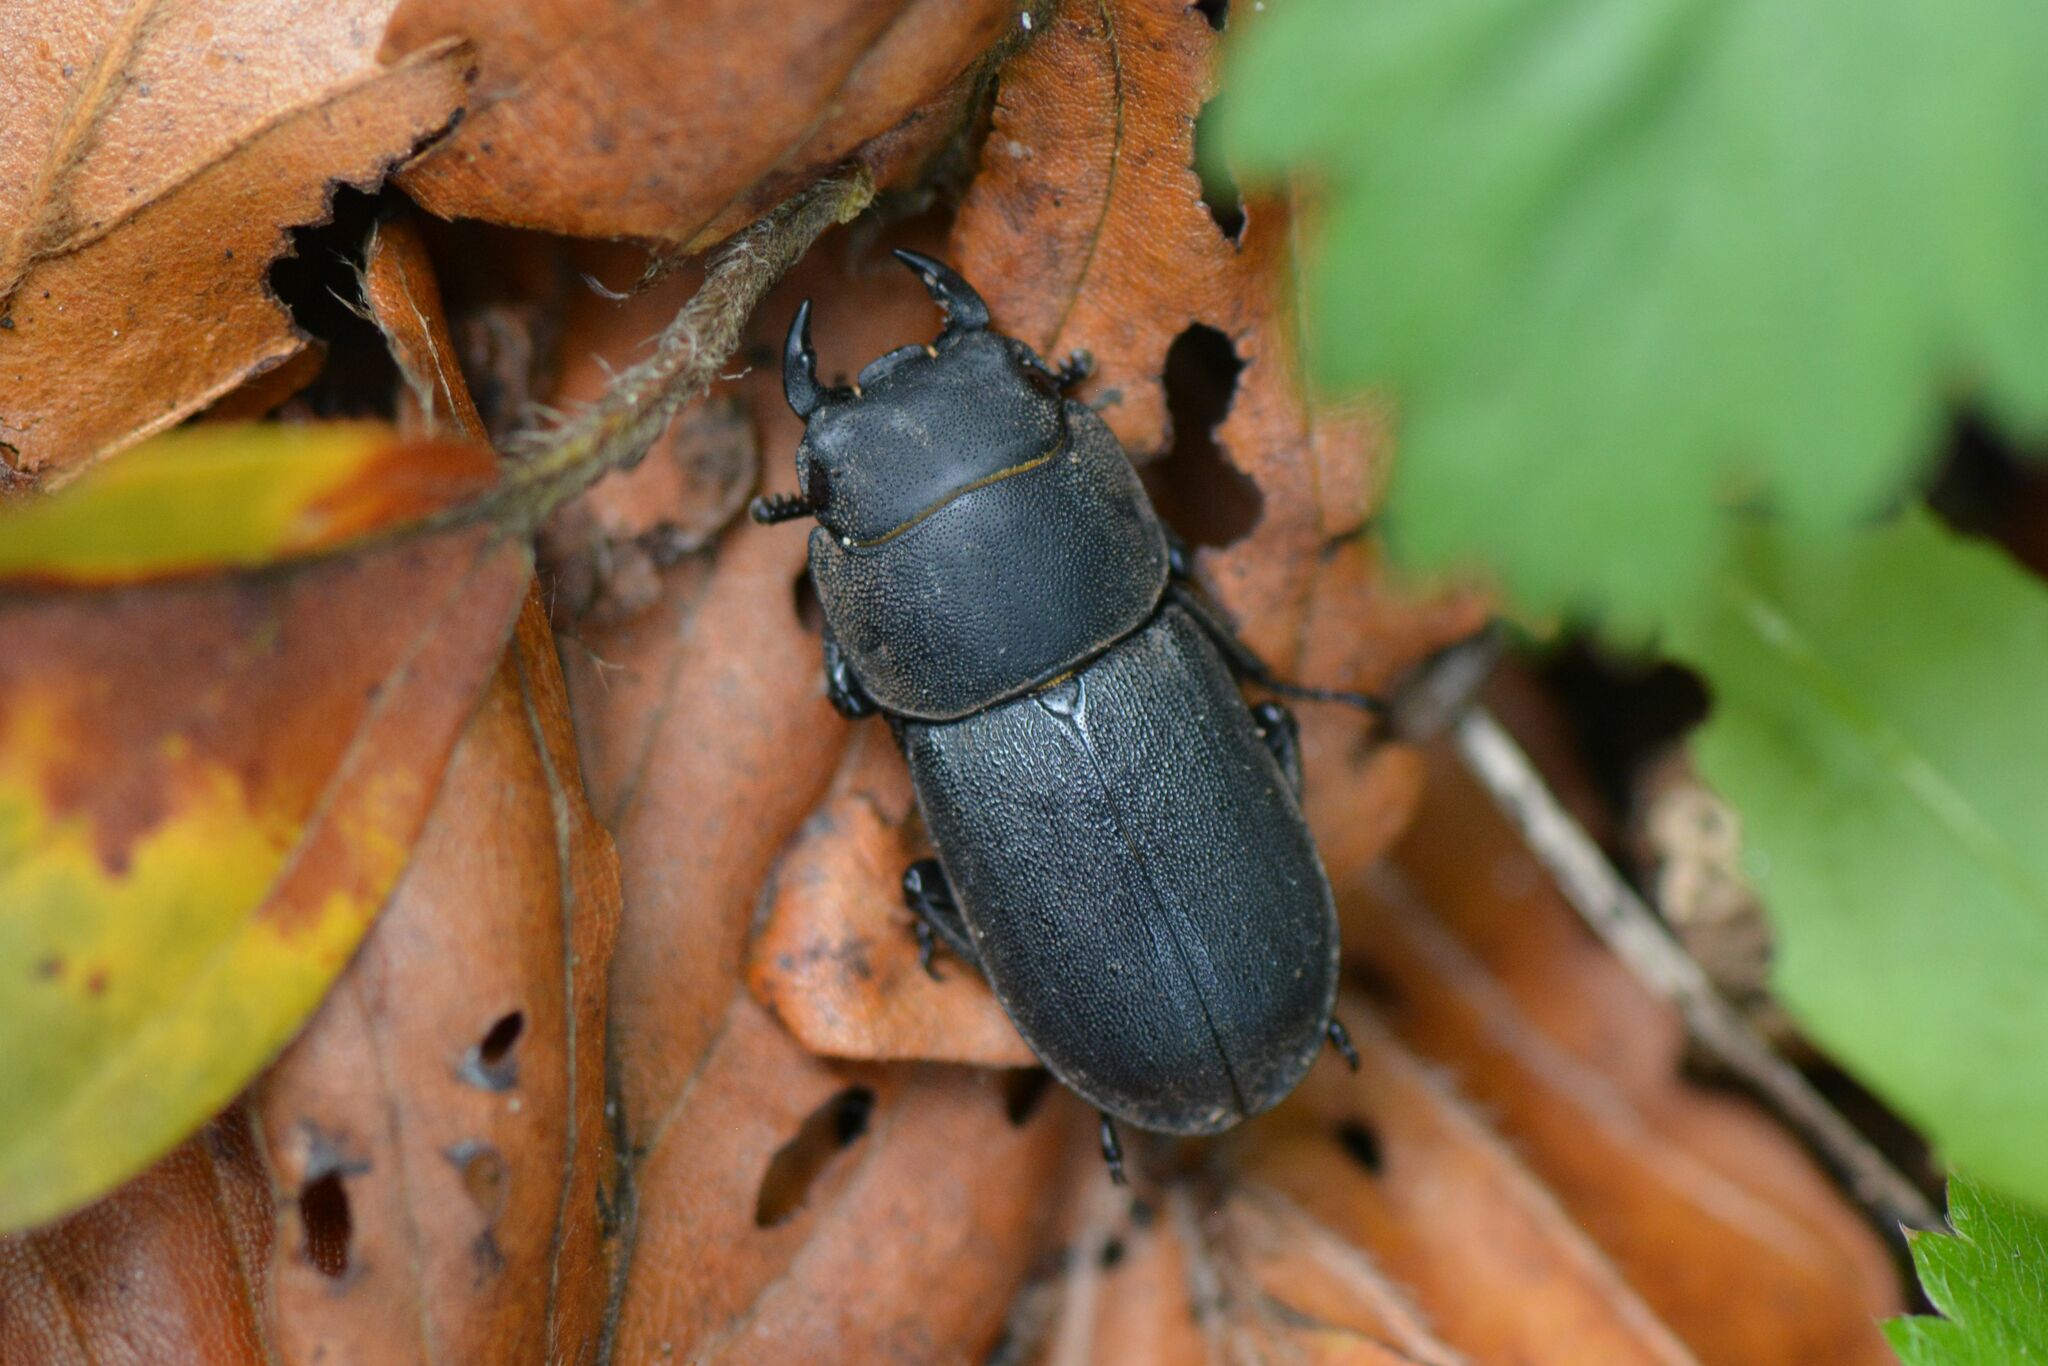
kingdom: Animalia
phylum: Arthropoda
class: Insecta
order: Coleoptera
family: Lucanidae
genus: Dorcus
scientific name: Dorcus parallelipipedus
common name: Lesser stag beetle
